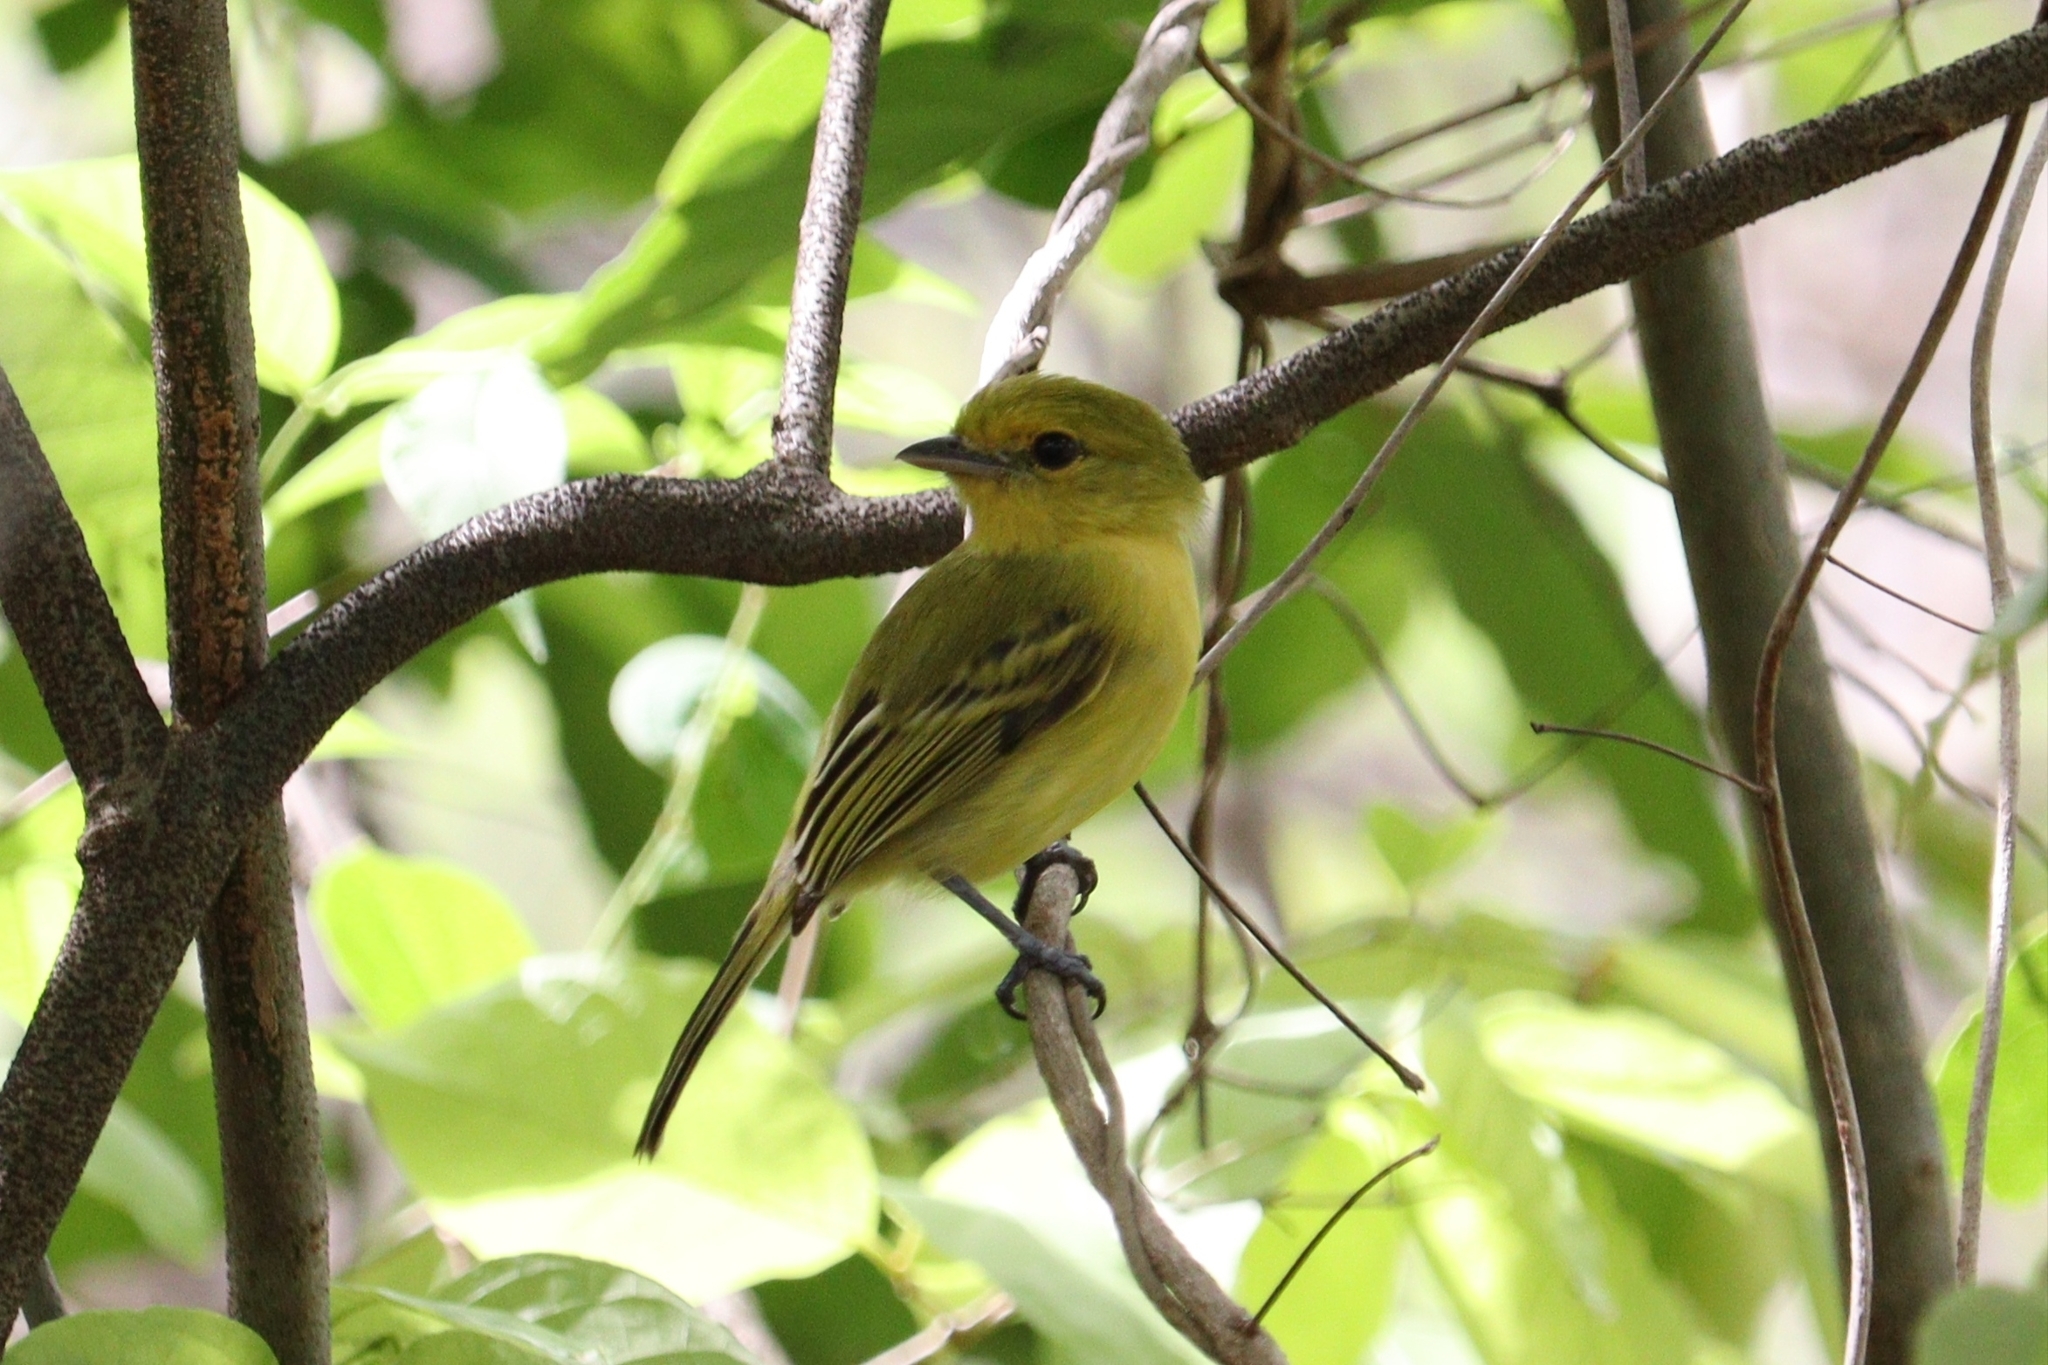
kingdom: Animalia
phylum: Chordata
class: Aves
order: Passeriformes
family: Tyrannidae
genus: Tolmomyias
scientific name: Tolmomyias flaviventris
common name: Ochre-lored flatbill
